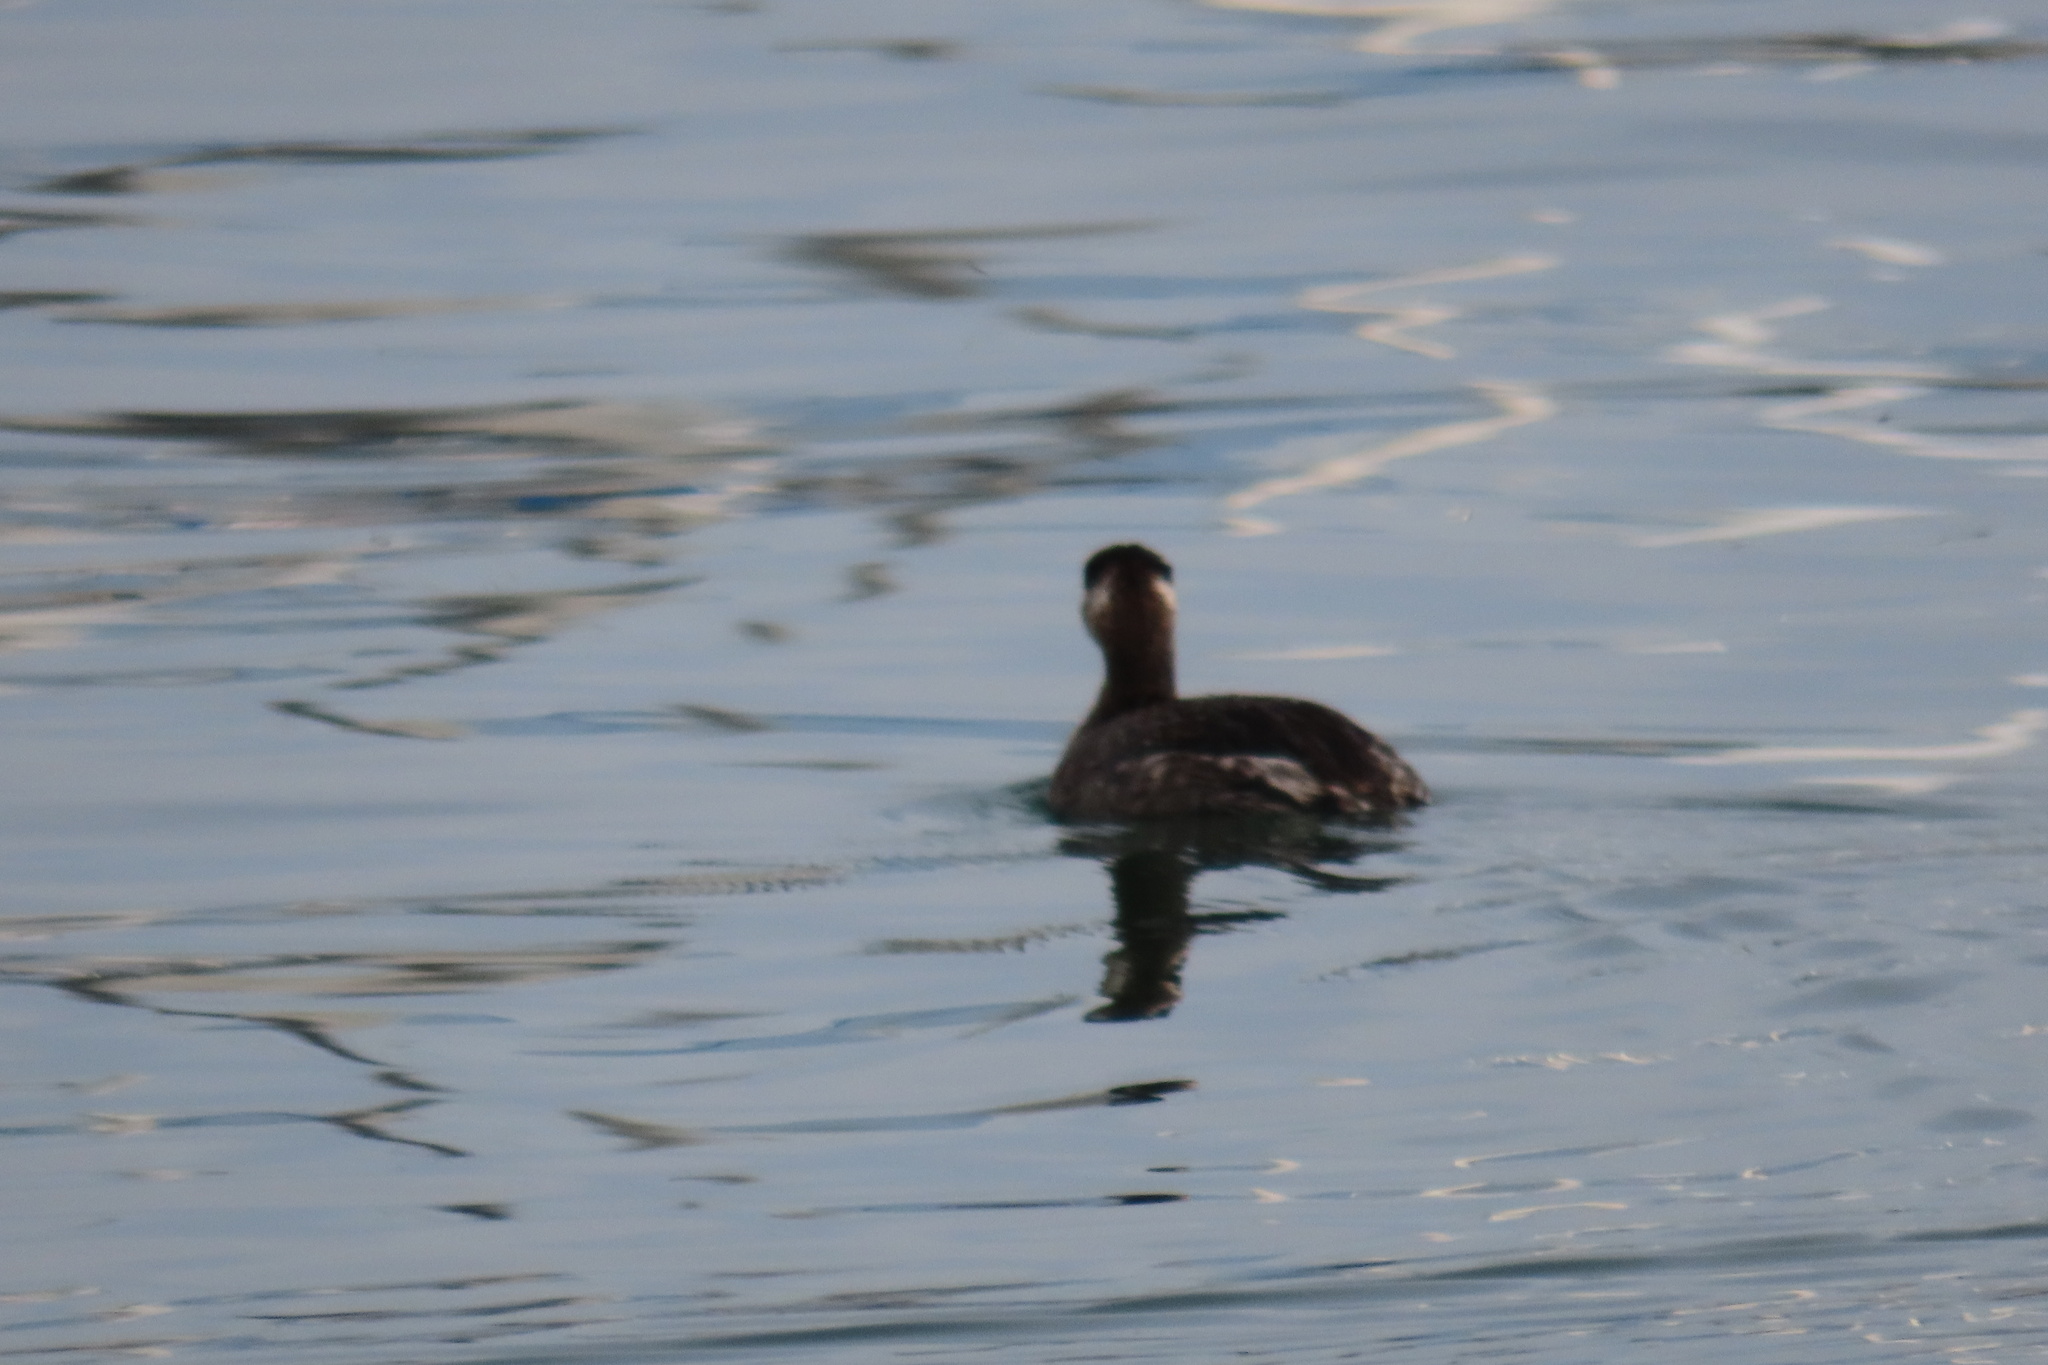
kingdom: Animalia
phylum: Chordata
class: Aves
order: Gaviiformes
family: Gaviidae
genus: Gavia
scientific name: Gavia stellata
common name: Red-throated loon
